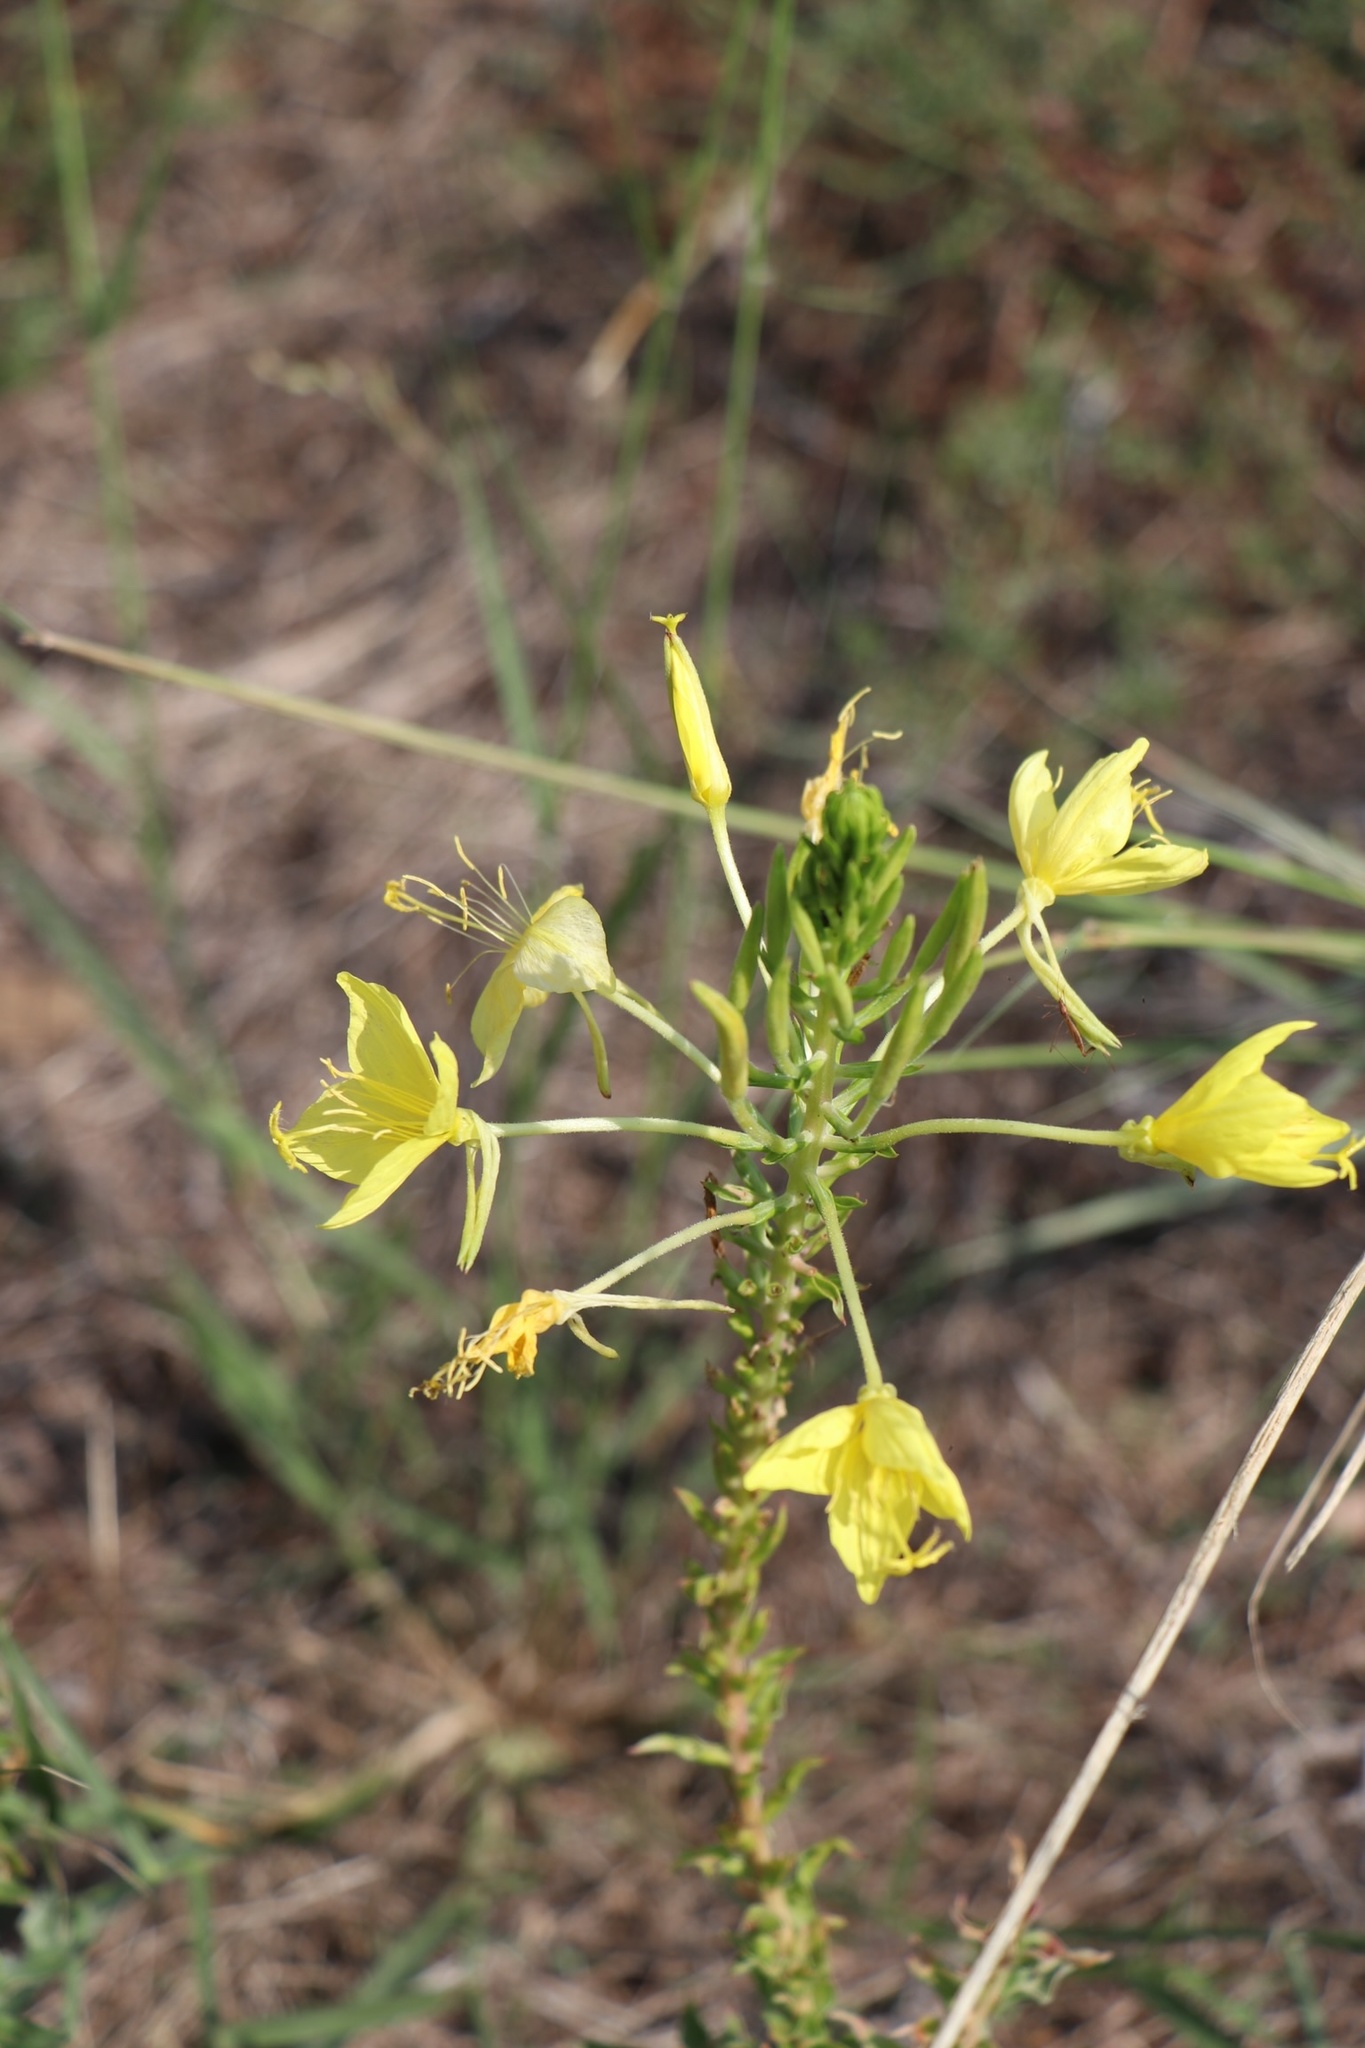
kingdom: Plantae
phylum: Tracheophyta
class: Magnoliopsida
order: Myrtales
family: Onagraceae
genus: Oenothera
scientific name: Oenothera rhombipetala
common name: Four-points evening-primrose
